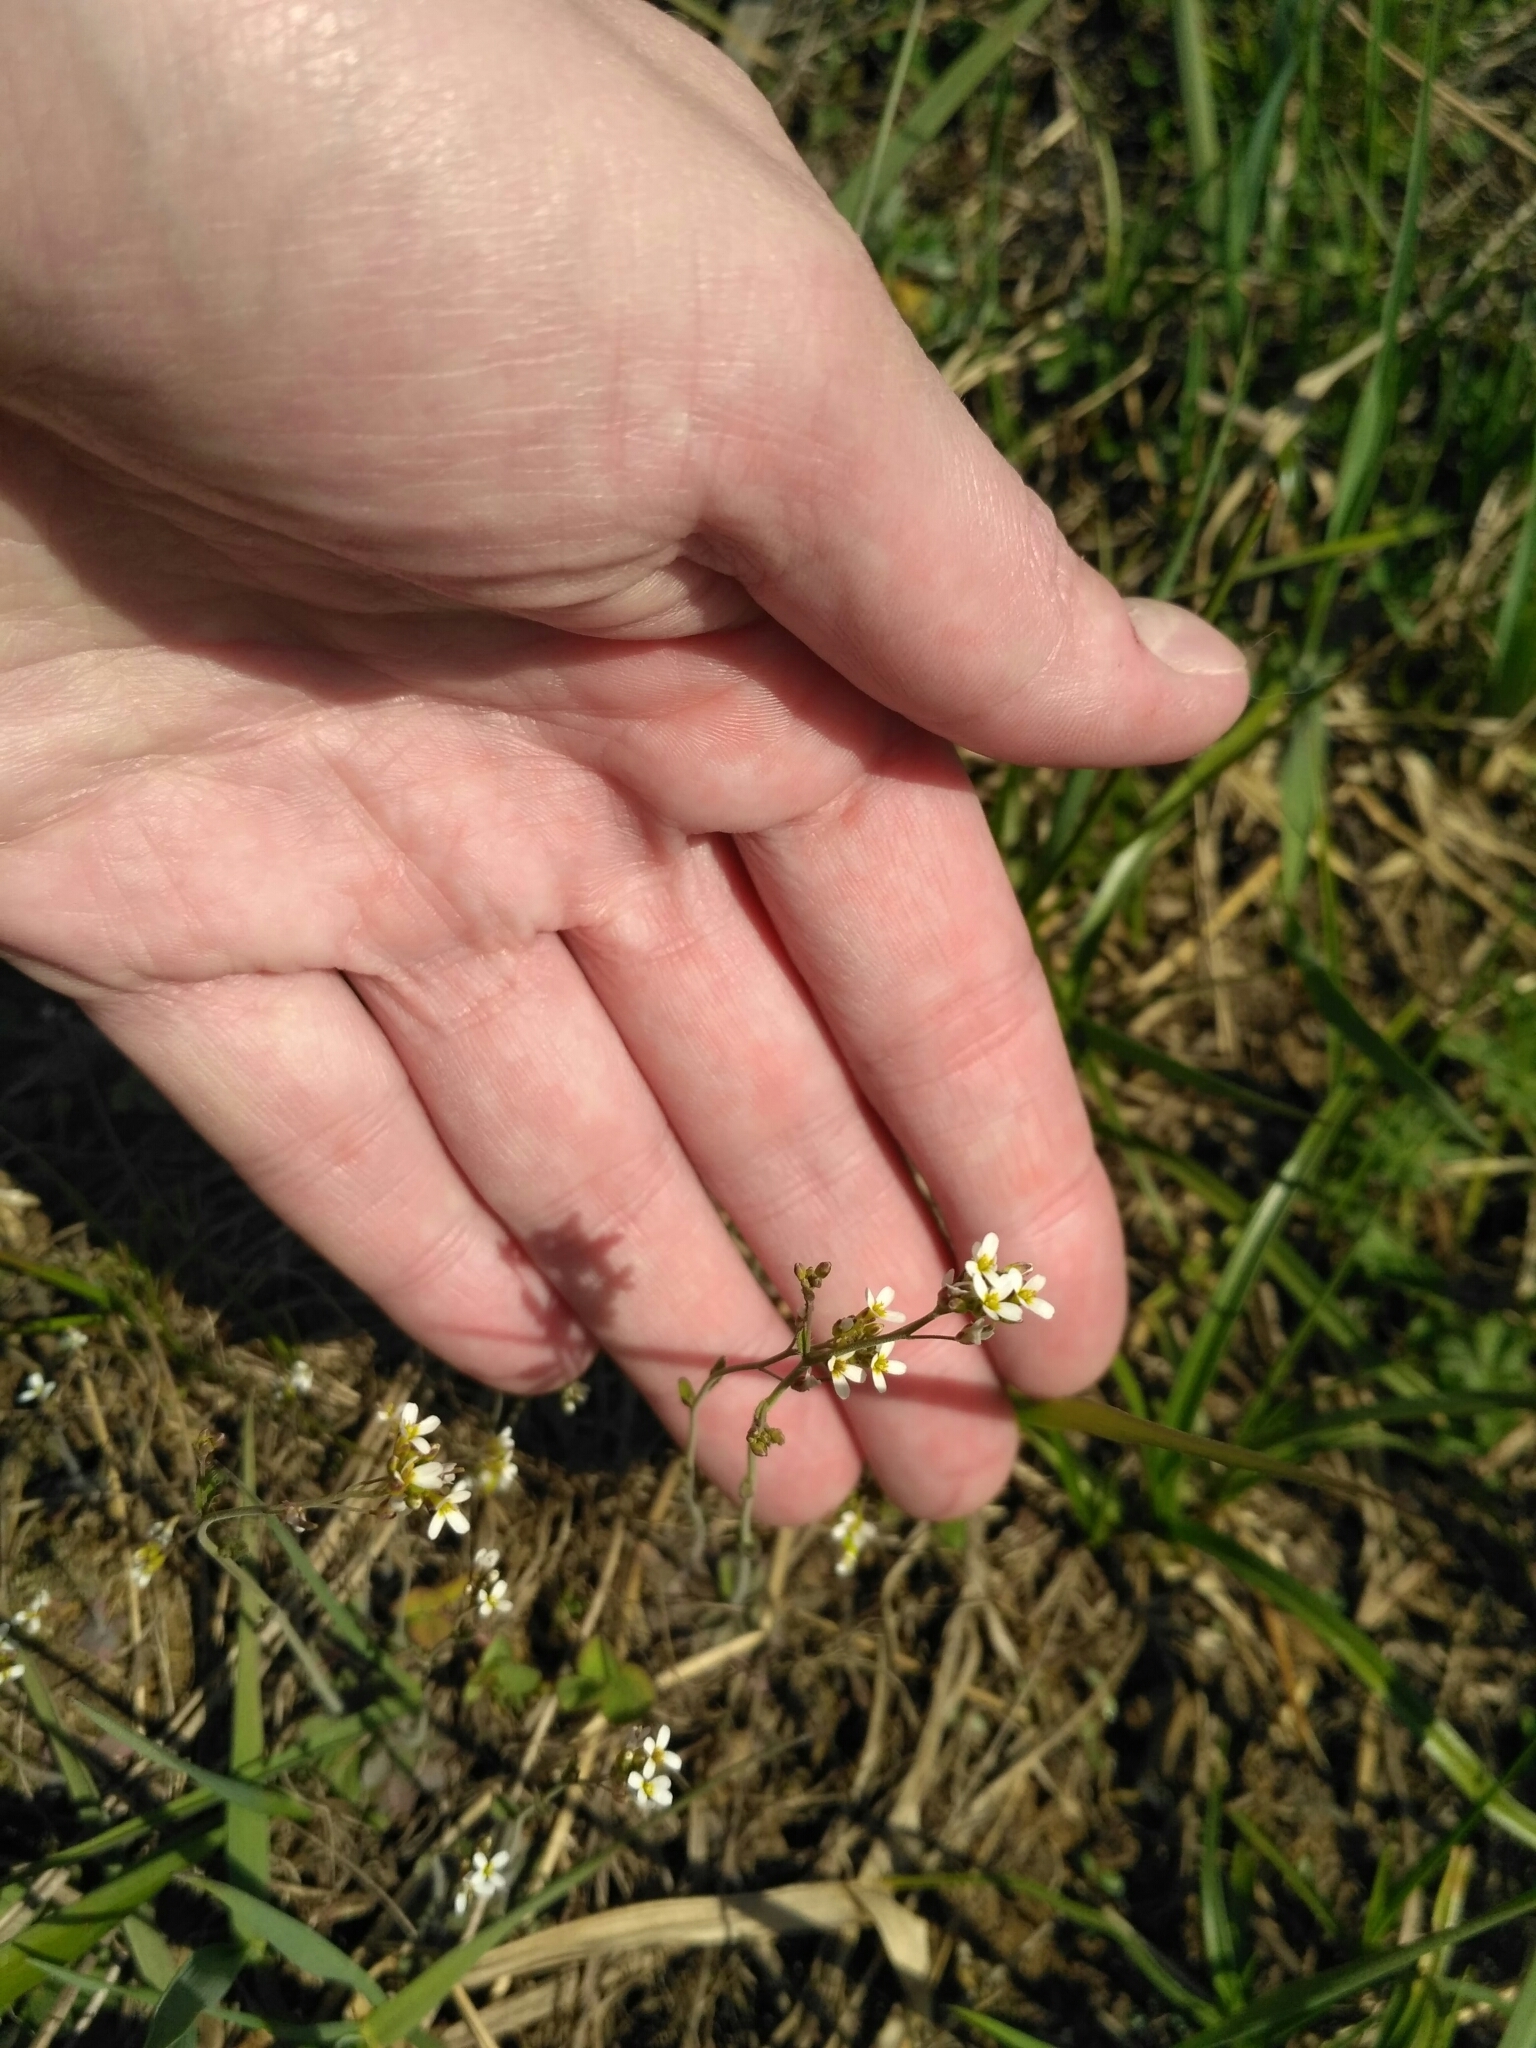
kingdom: Plantae
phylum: Tracheophyta
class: Magnoliopsida
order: Brassicales
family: Brassicaceae
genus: Arabidopsis
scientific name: Arabidopsis thaliana
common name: Thale cress
